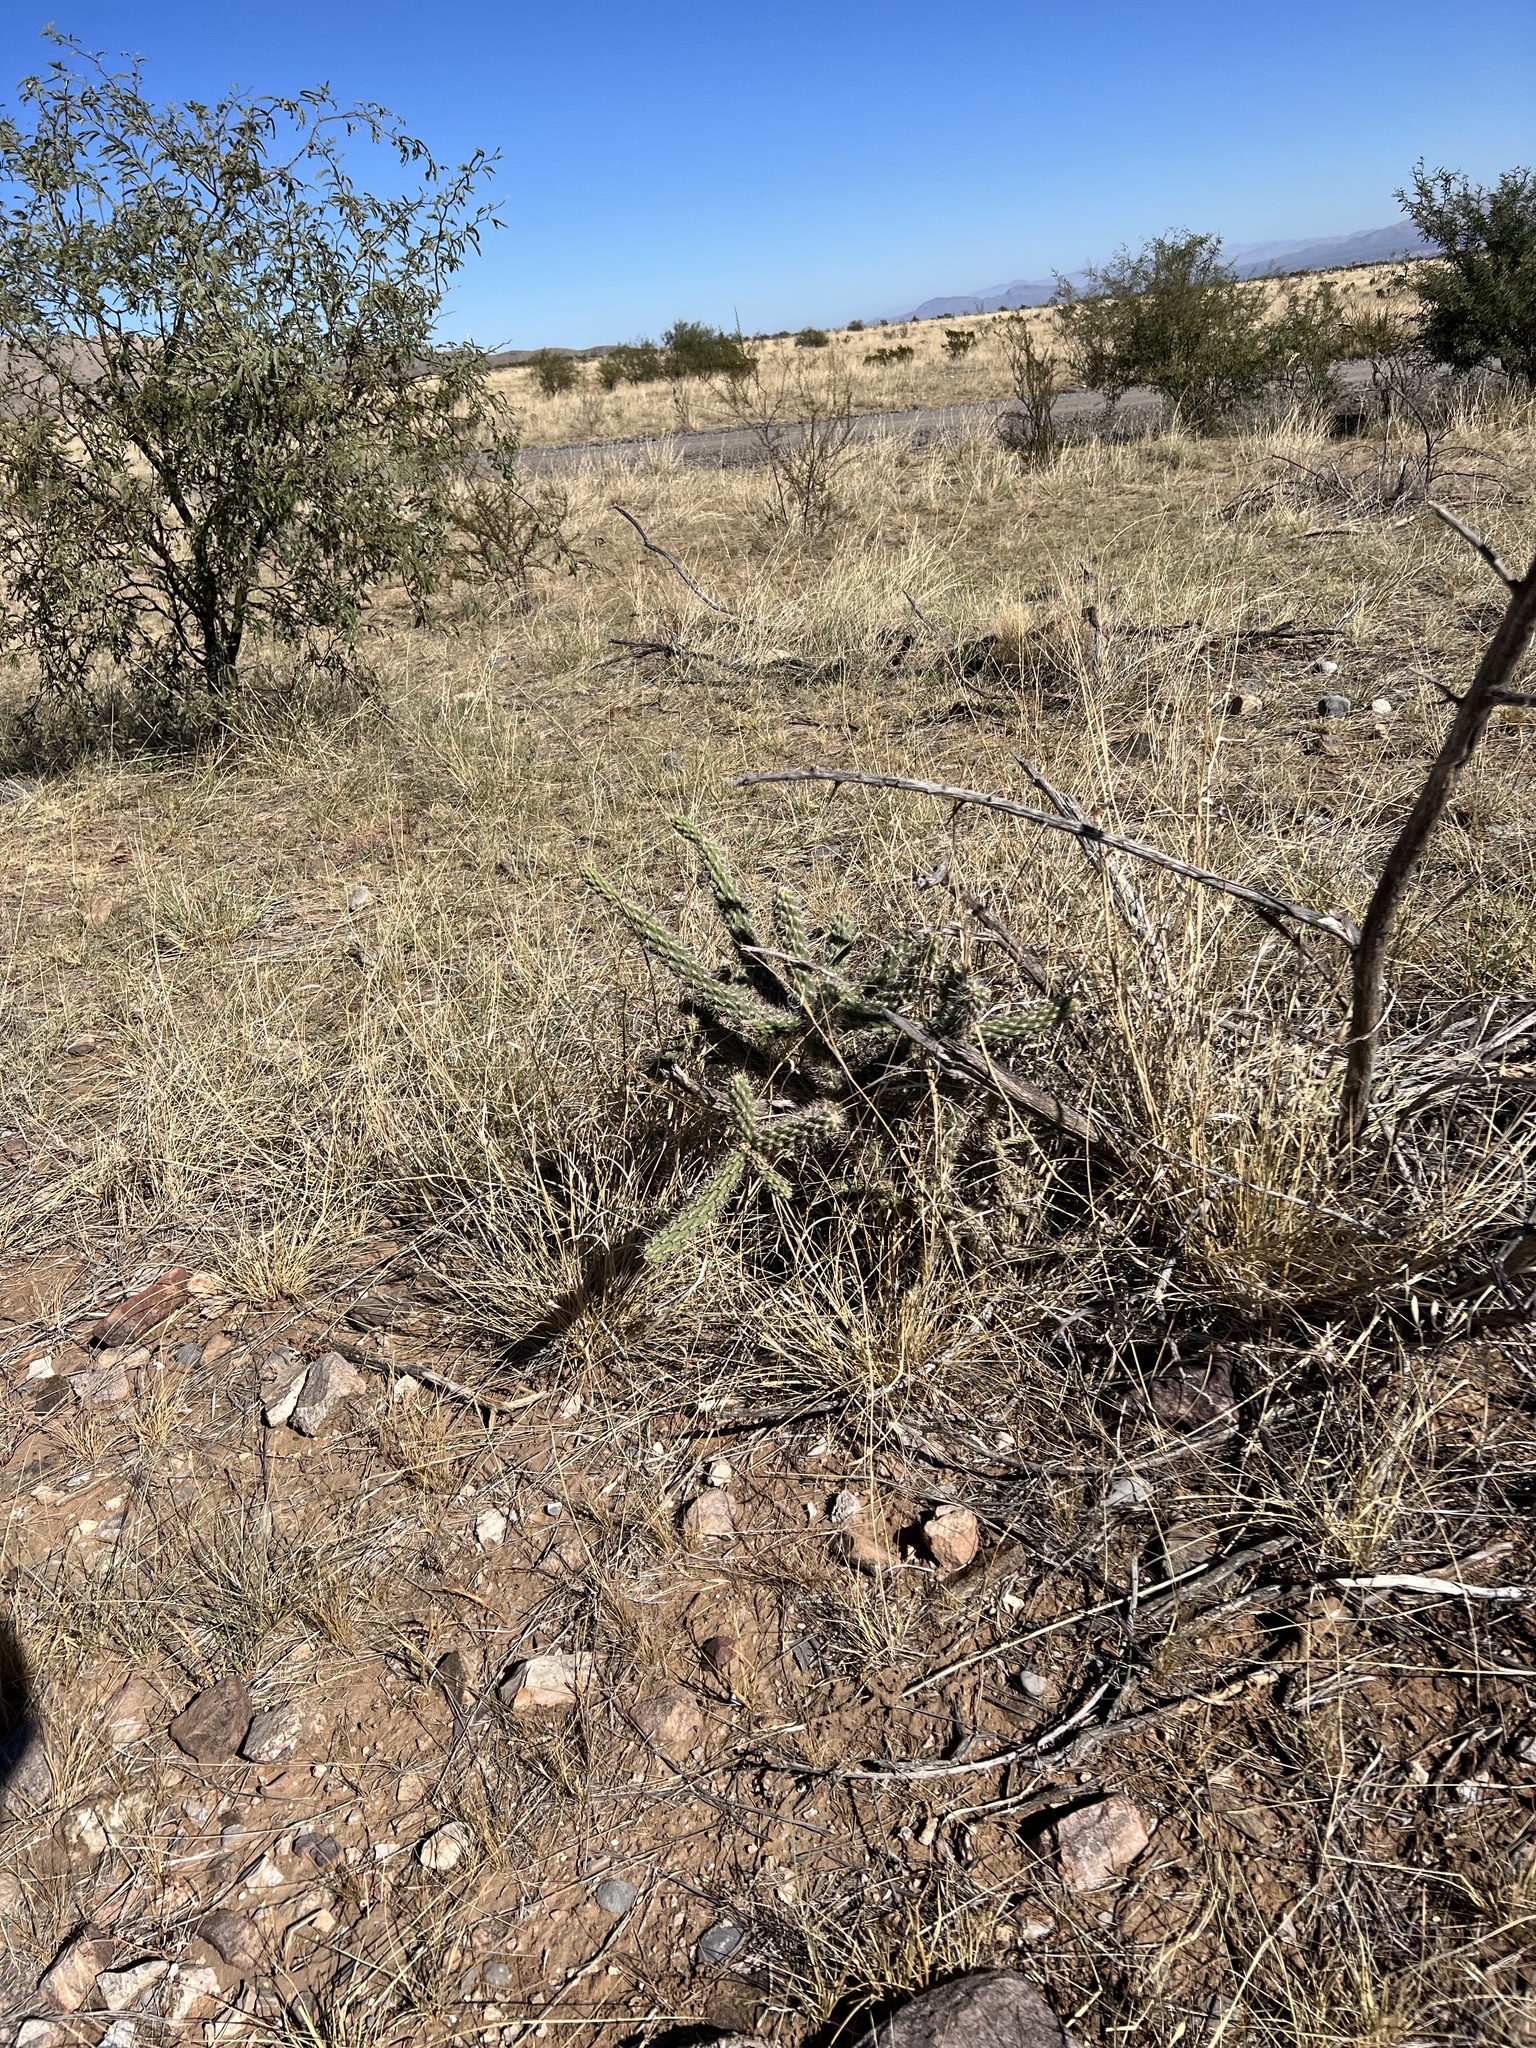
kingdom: Plantae
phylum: Tracheophyta
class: Magnoliopsida
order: Caryophyllales
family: Cactaceae
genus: Cylindropuntia
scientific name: Cylindropuntia imbricata
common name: Candelabrum cactus
